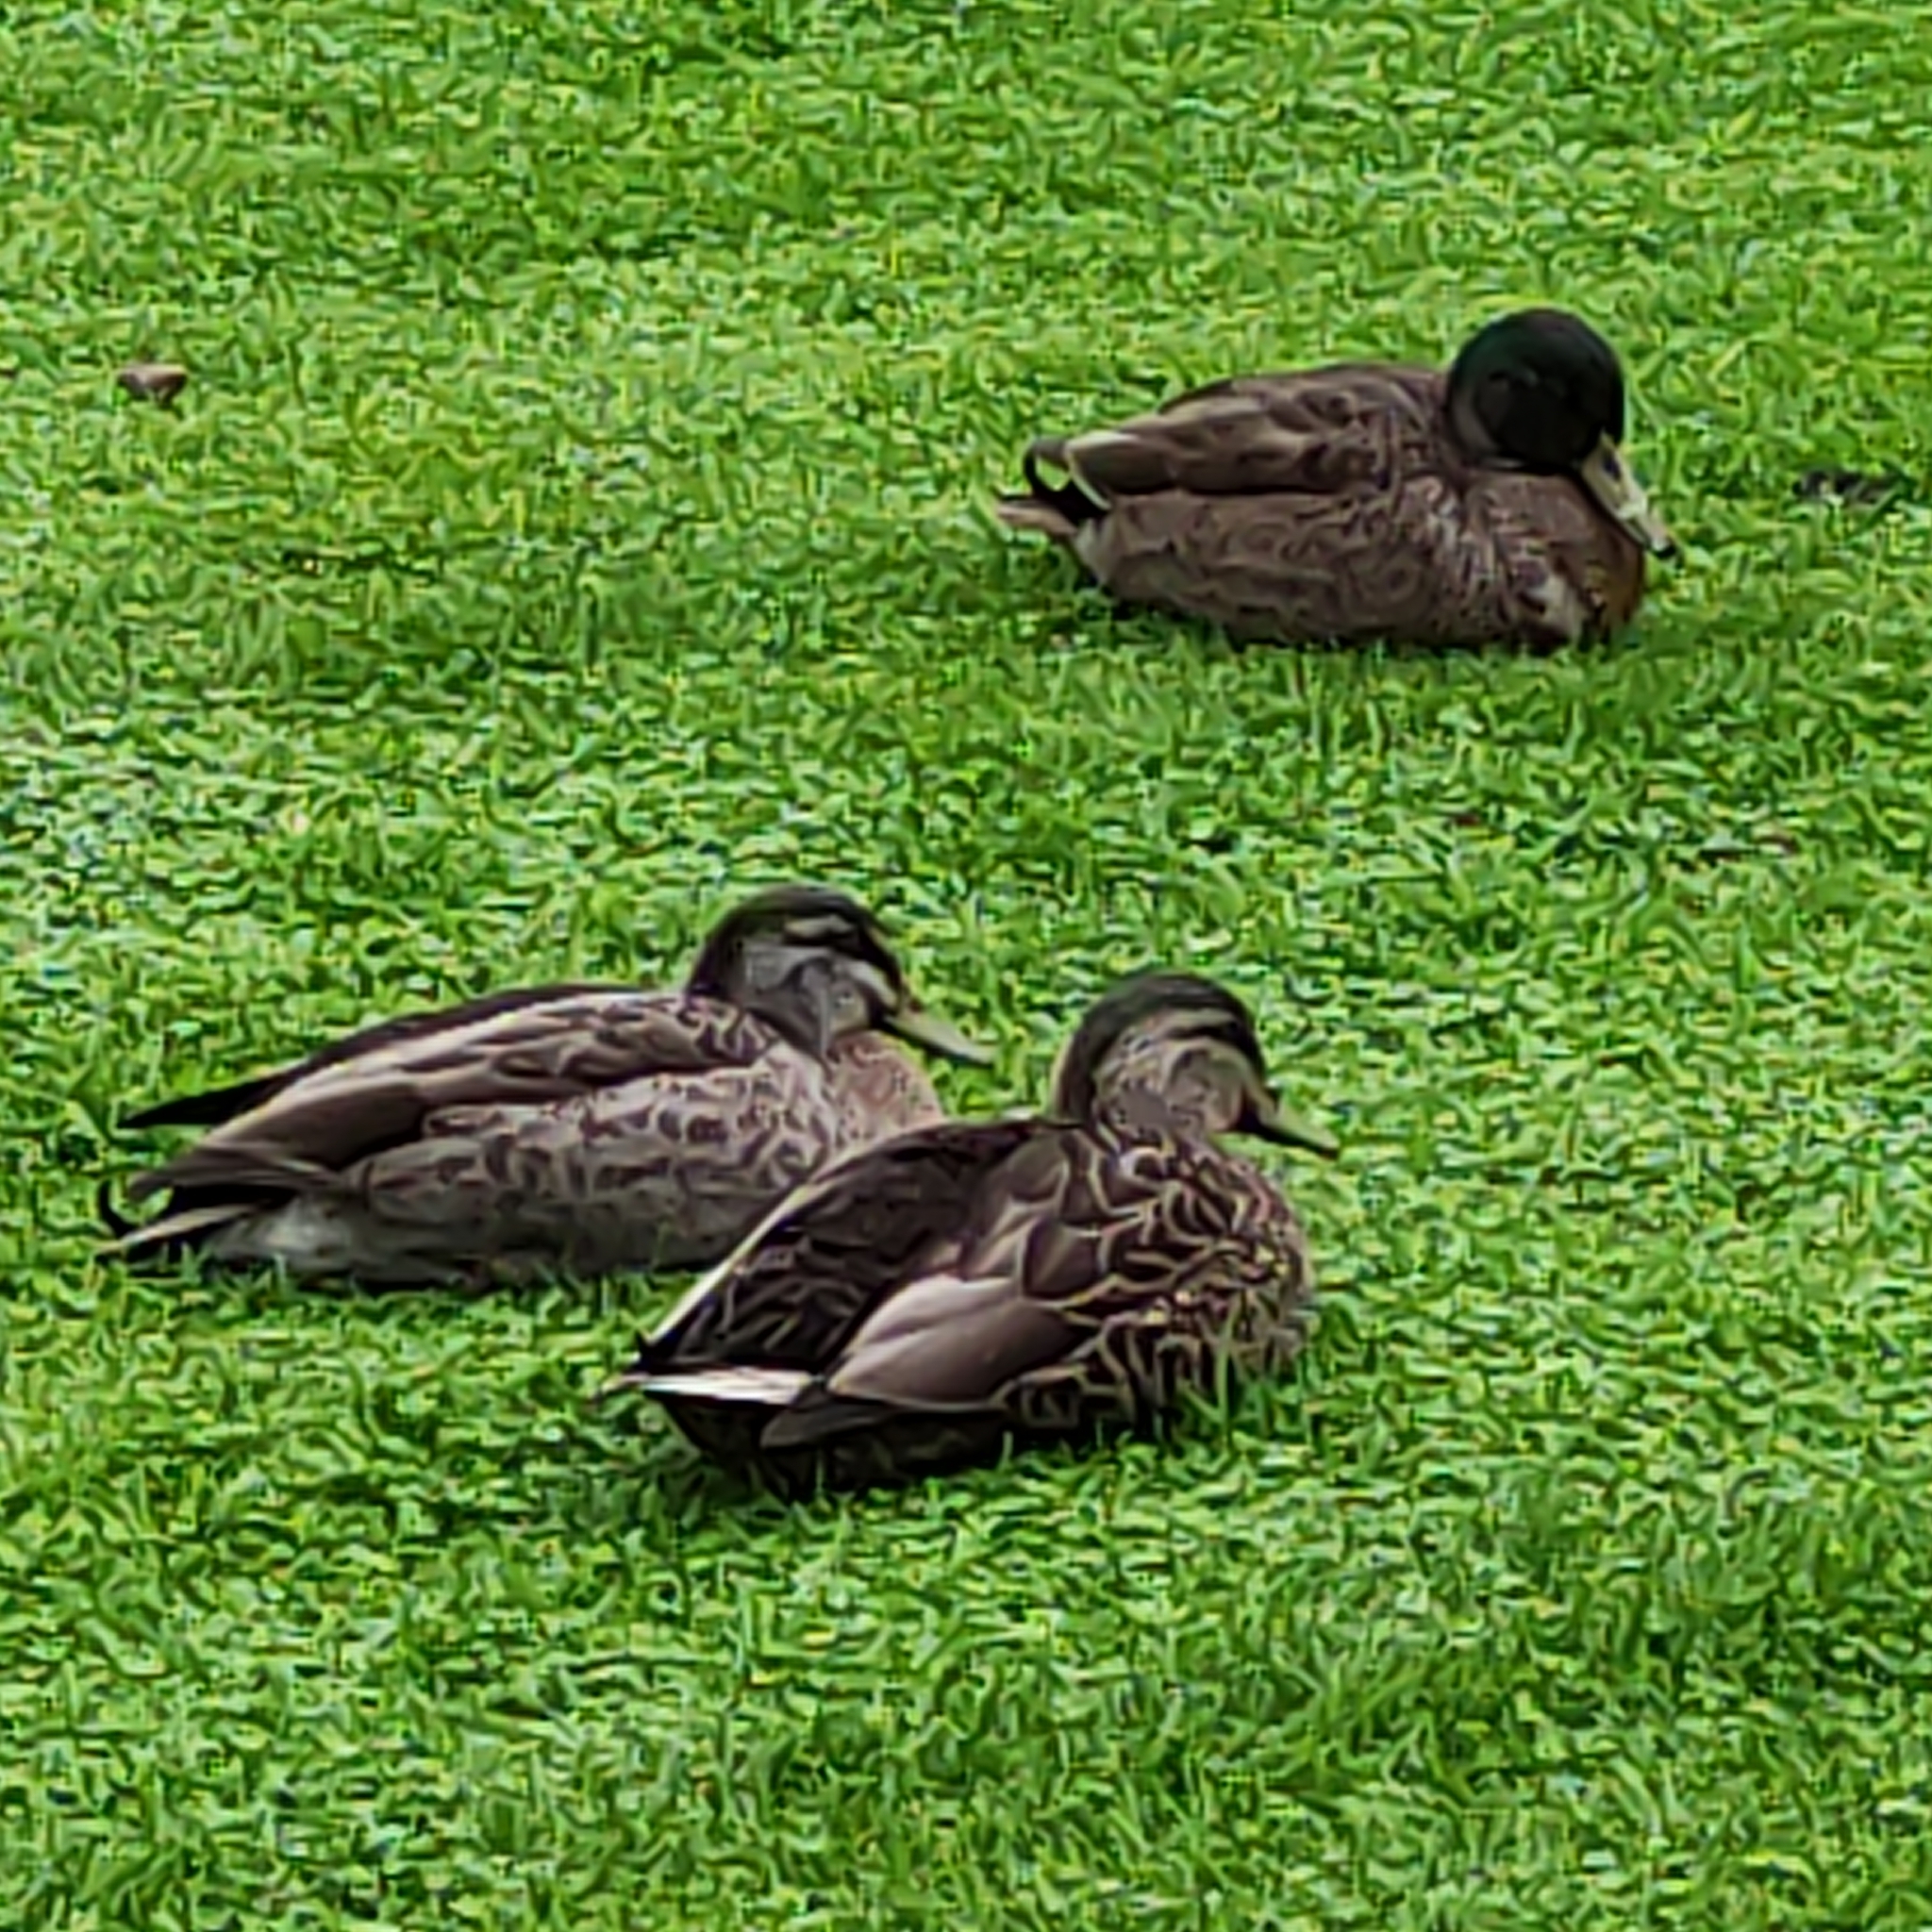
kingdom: Animalia
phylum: Chordata
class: Aves
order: Anseriformes
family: Anatidae
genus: Anas
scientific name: Anas platyrhynchos
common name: Mallard
